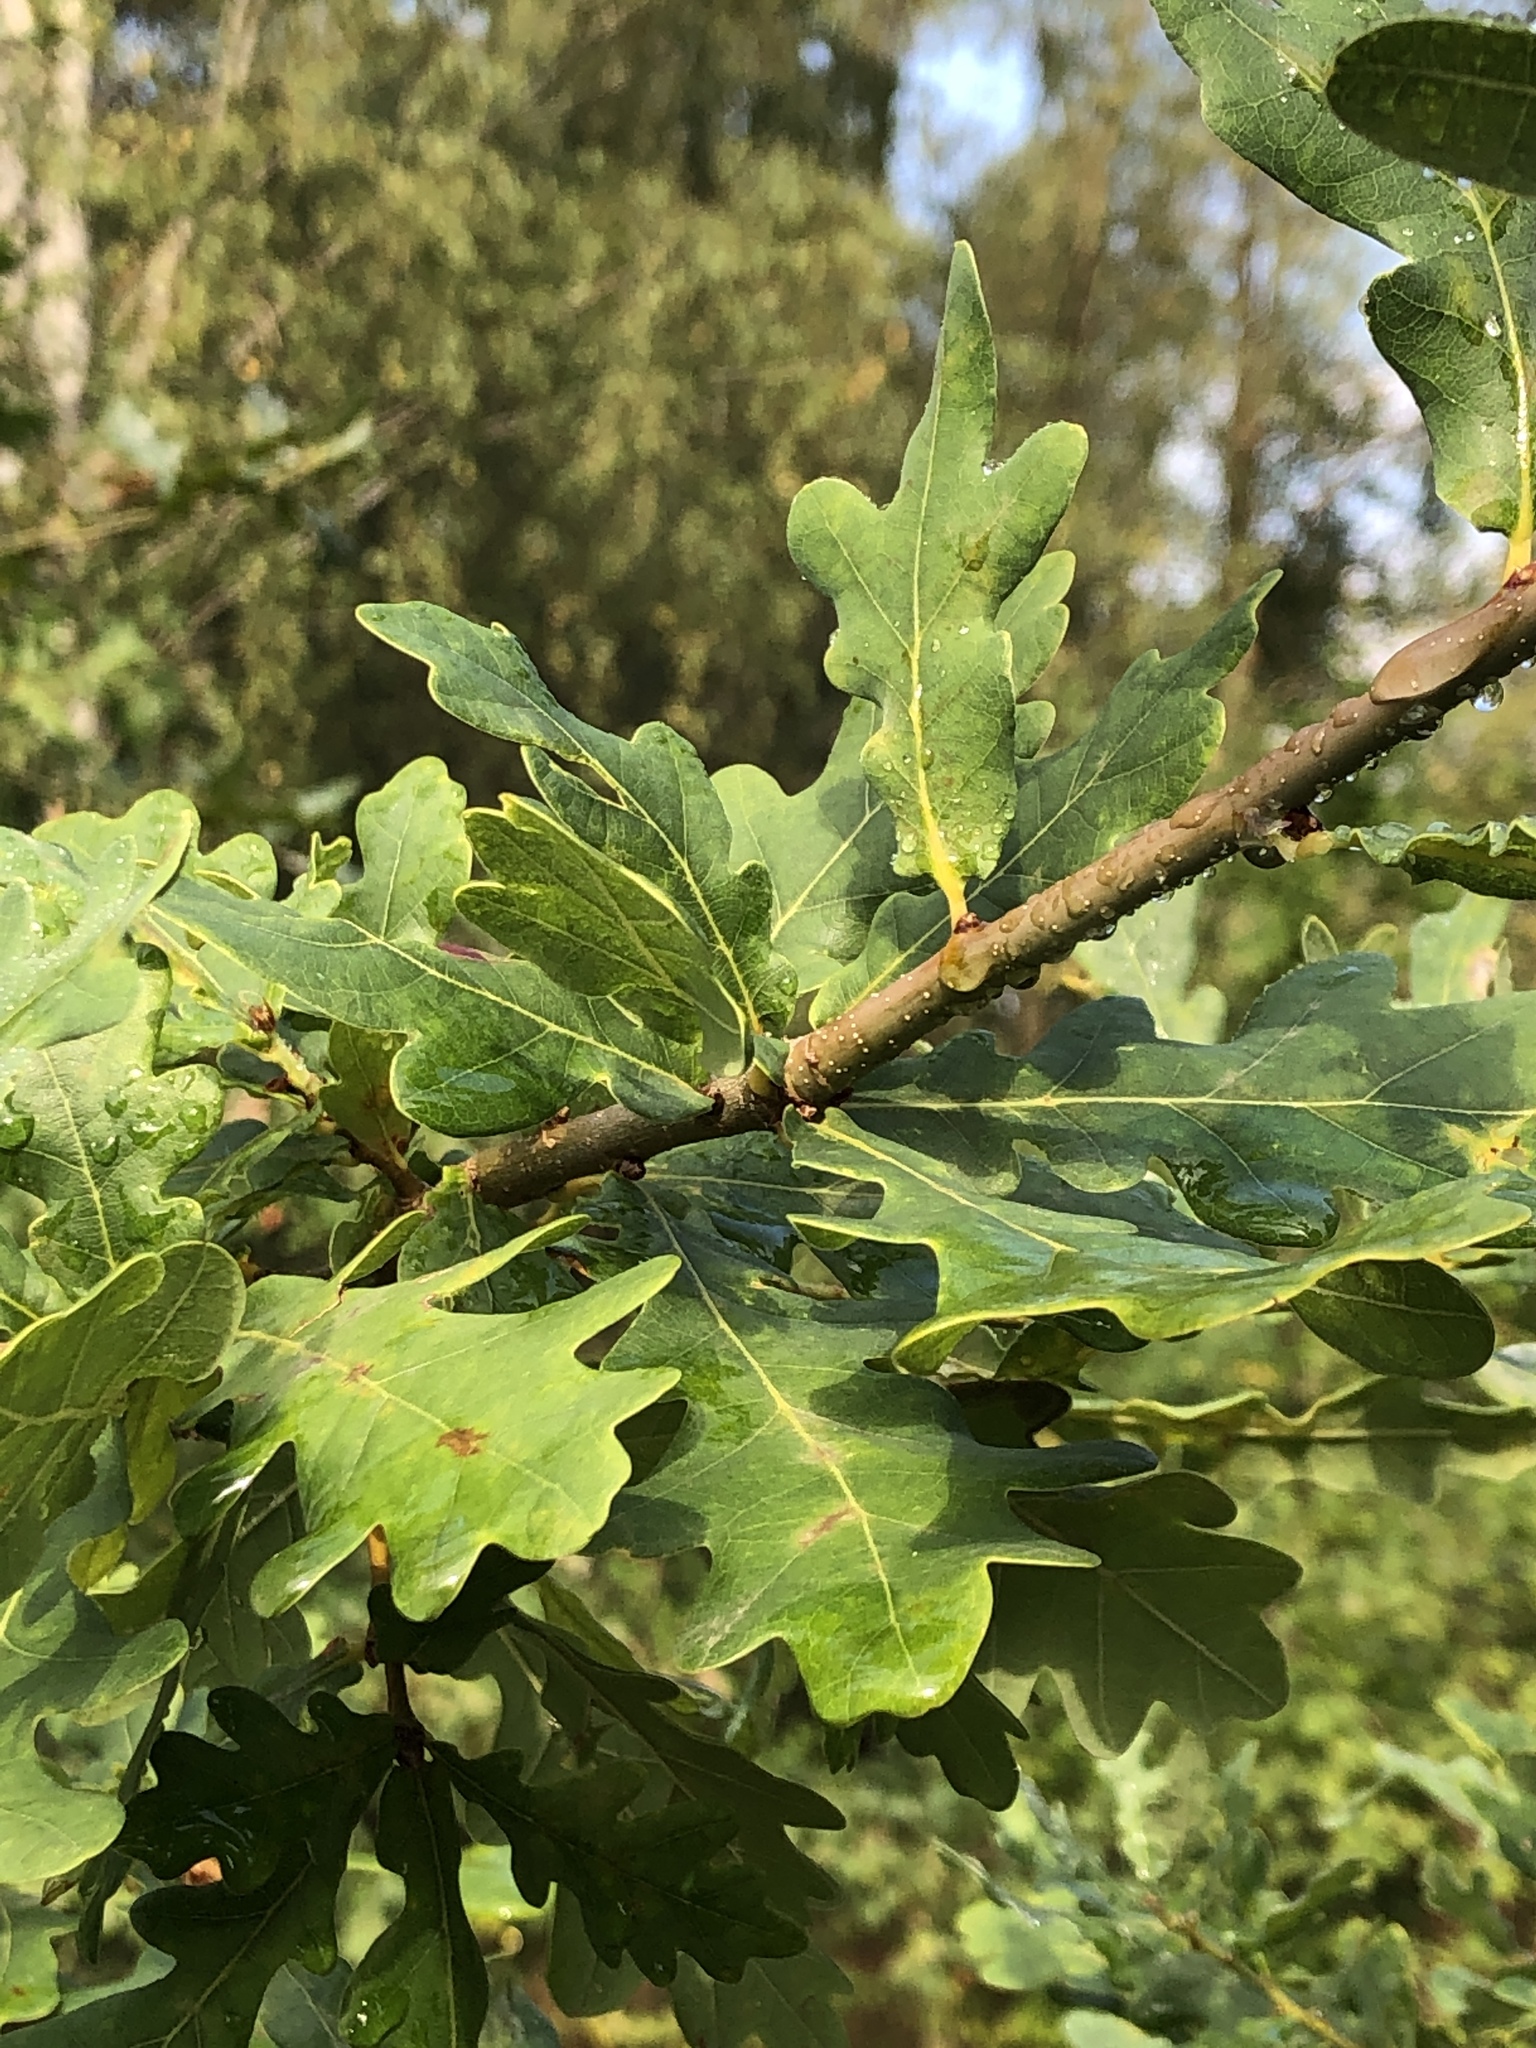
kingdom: Plantae
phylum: Tracheophyta
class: Magnoliopsida
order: Fagales
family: Fagaceae
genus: Quercus
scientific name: Quercus robur
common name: Pedunculate oak
